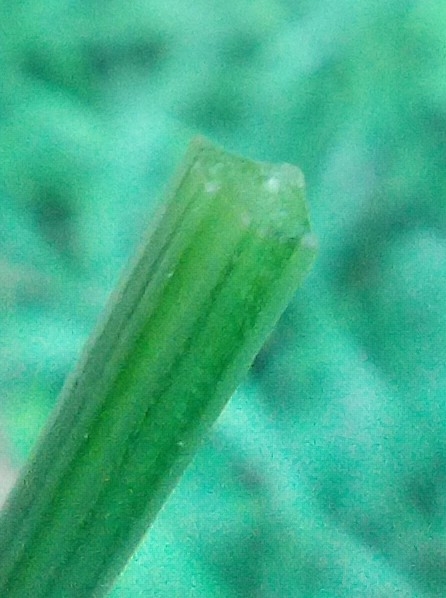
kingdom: Plantae
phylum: Tracheophyta
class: Magnoliopsida
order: Apiales
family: Apiaceae
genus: Selinum
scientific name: Selinum carvifolia
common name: Cambridge milk-parsley
